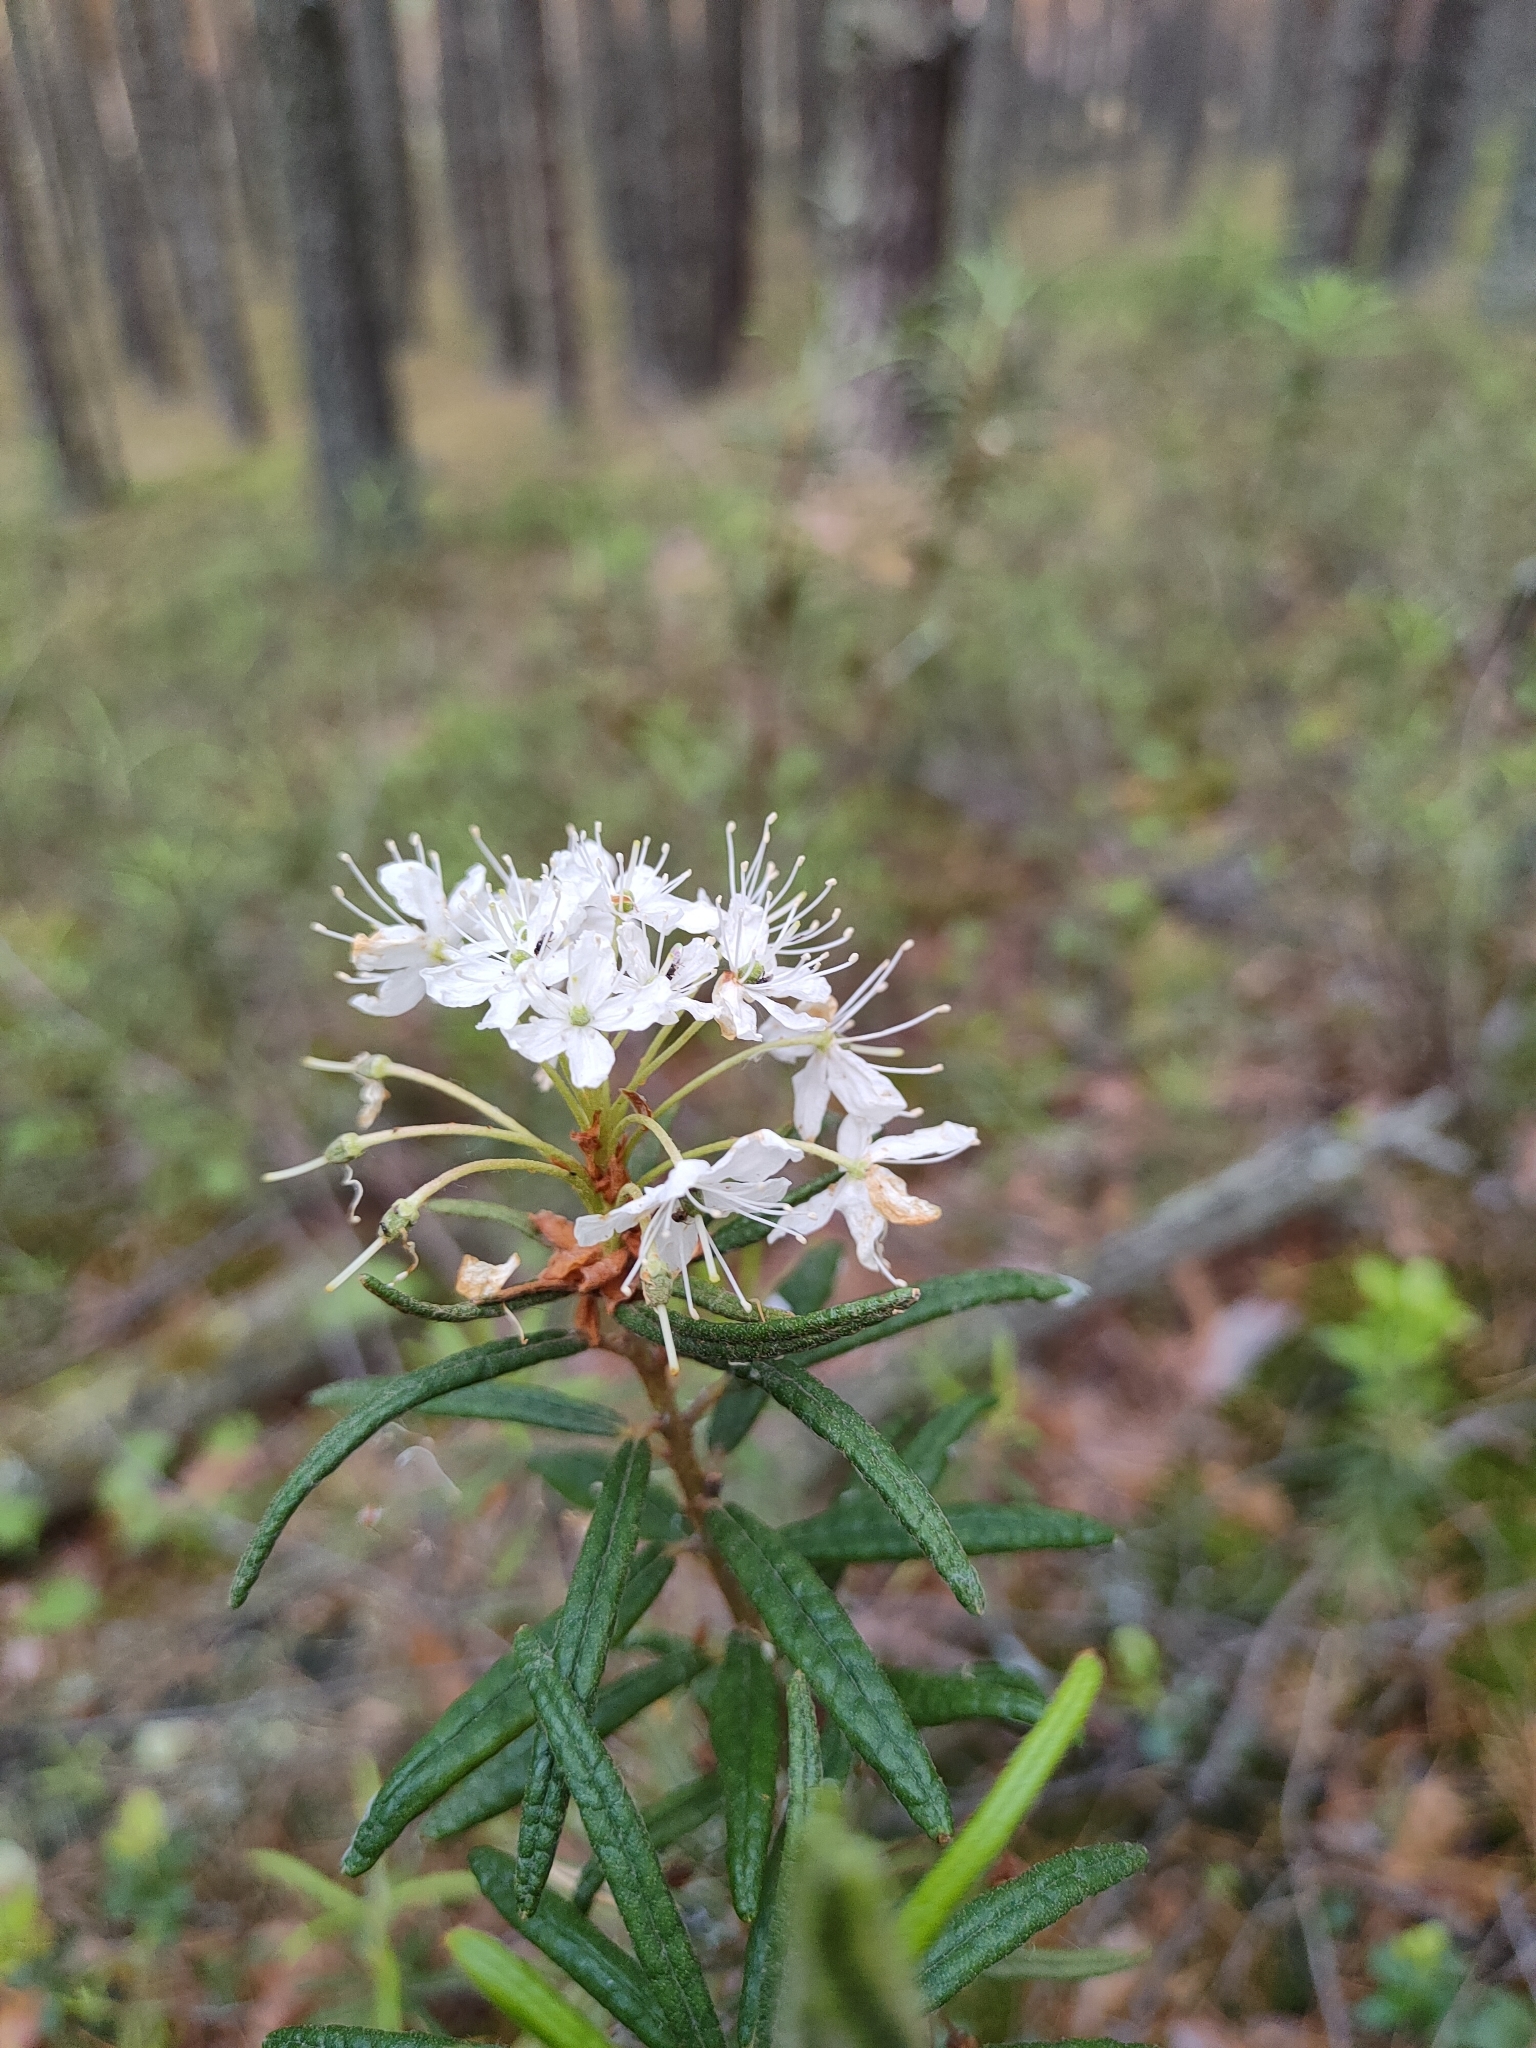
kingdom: Plantae
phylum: Tracheophyta
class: Magnoliopsida
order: Ericales
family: Ericaceae
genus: Rhododendron
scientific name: Rhododendron tomentosum
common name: Marsh labrador tea
